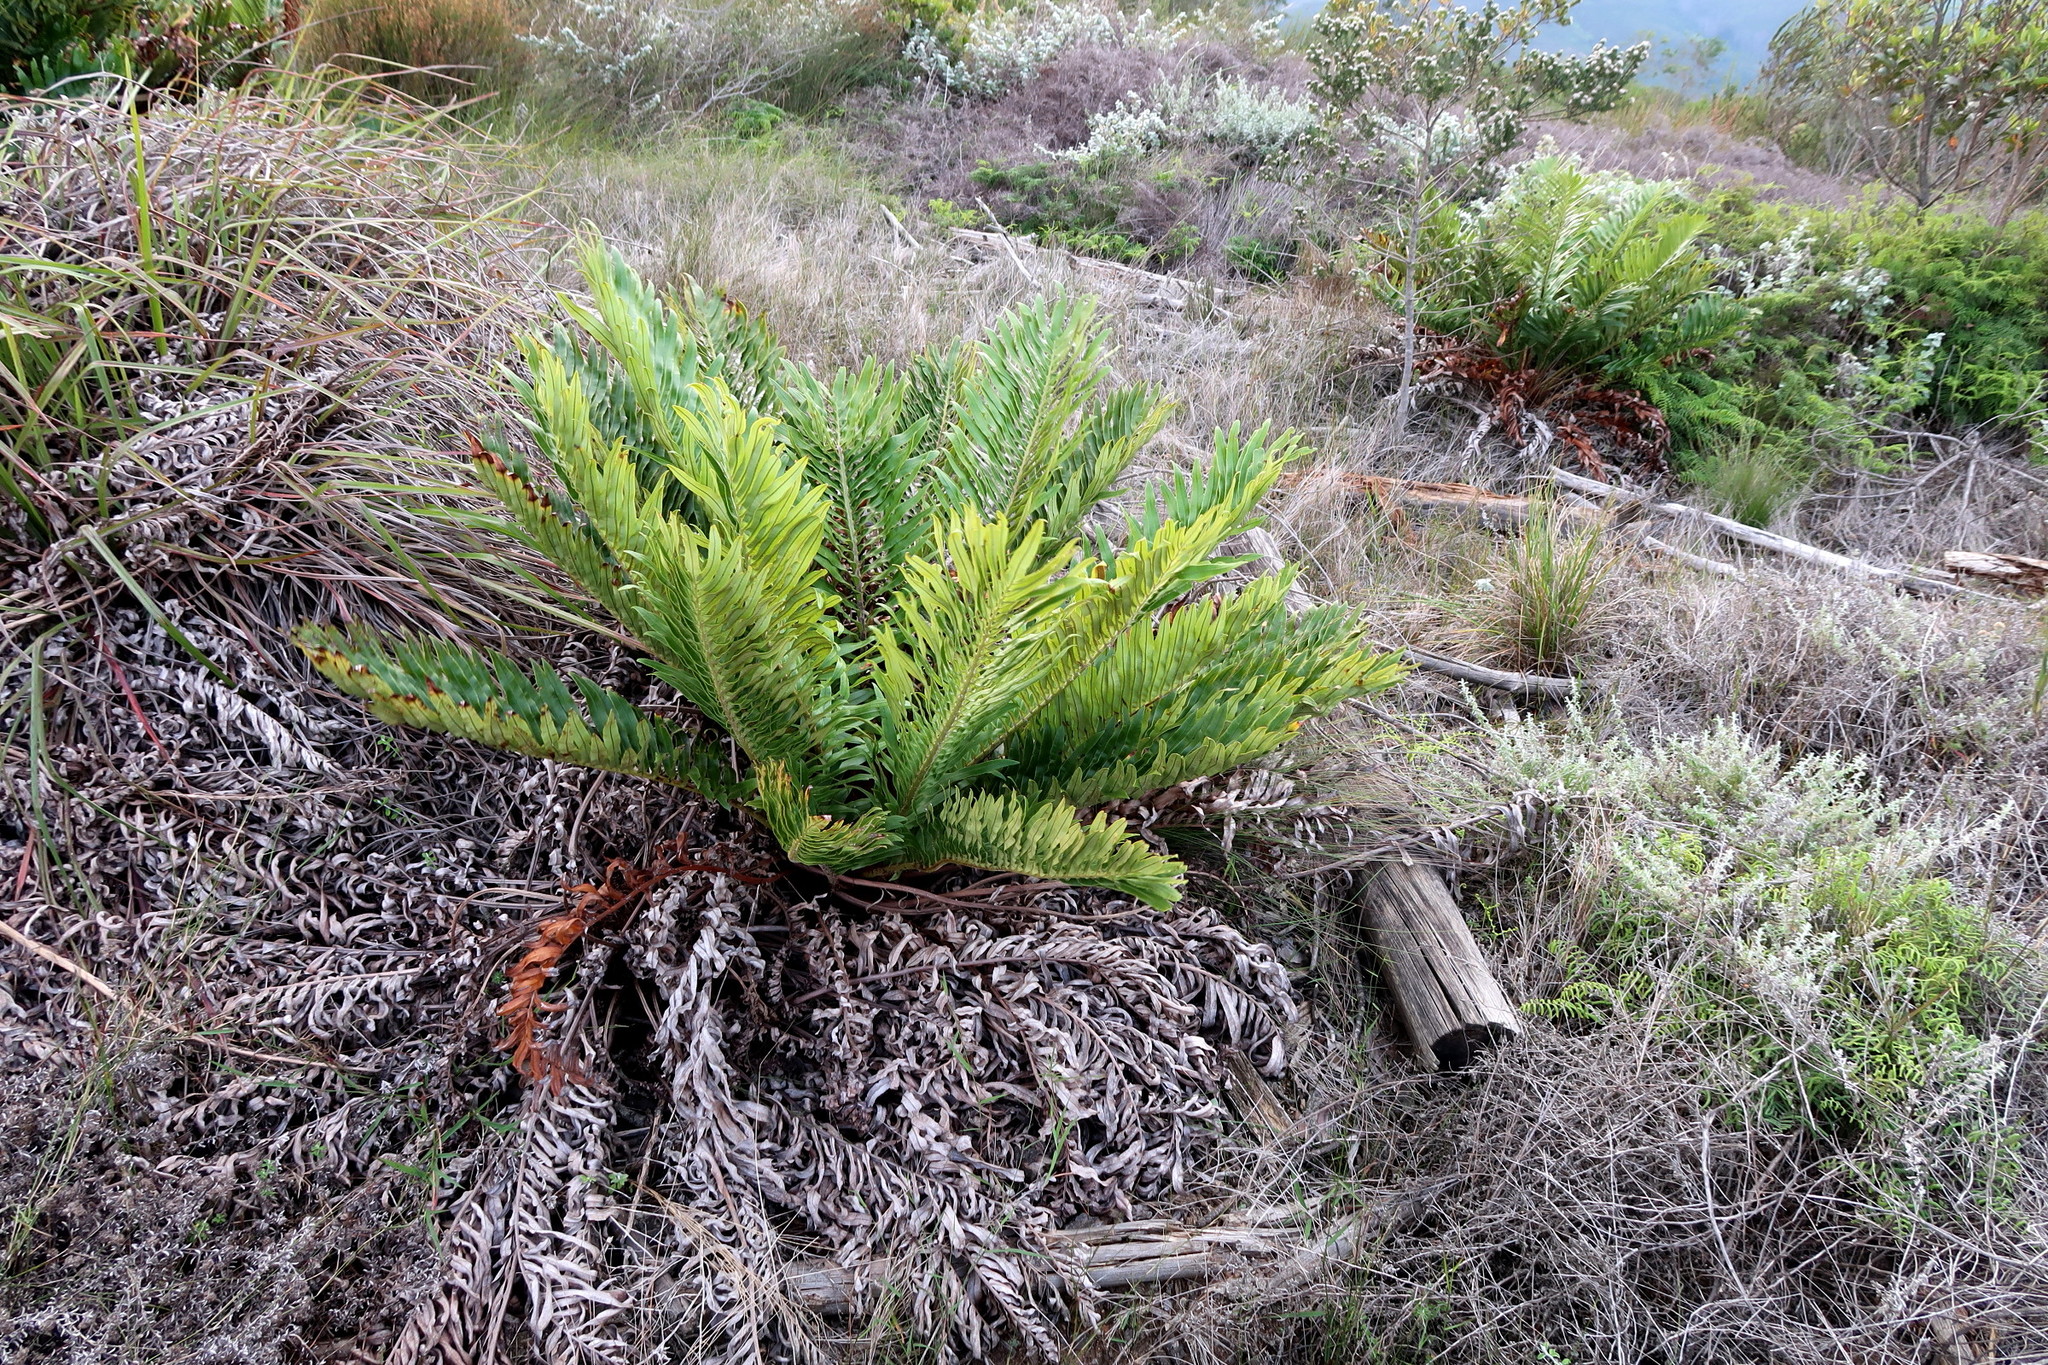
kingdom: Plantae
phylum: Tracheophyta
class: Polypodiopsida
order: Polypodiales
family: Blechnaceae
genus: Lomariocycas
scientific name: Lomariocycas tabularis
